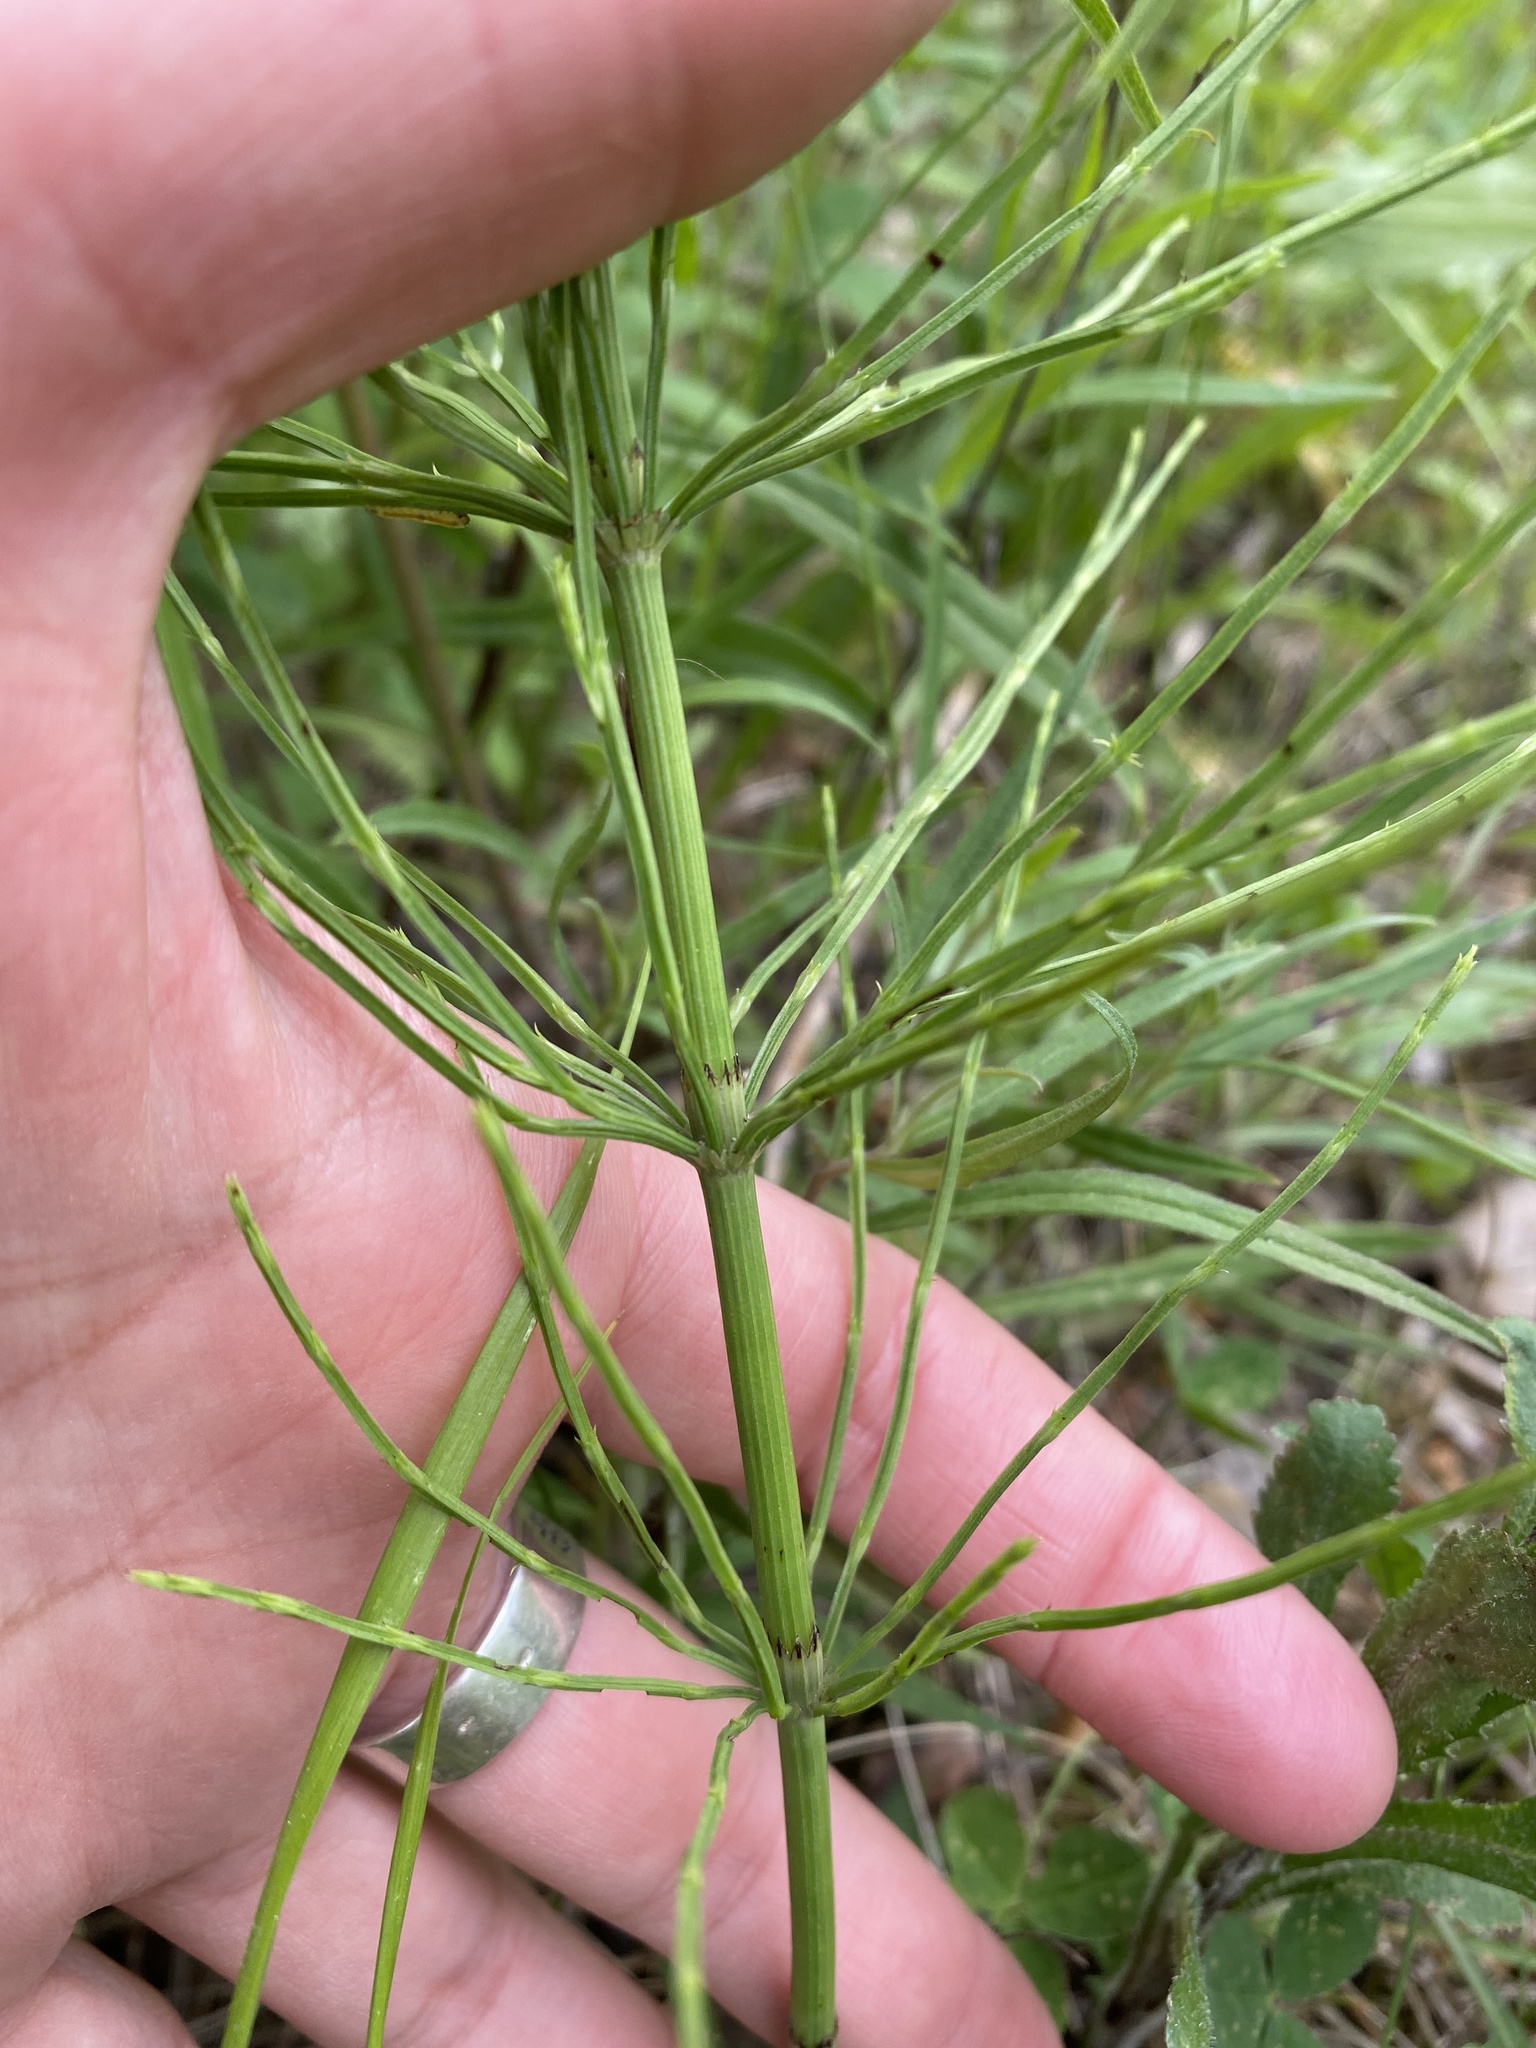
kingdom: Plantae
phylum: Tracheophyta
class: Polypodiopsida
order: Equisetales
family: Equisetaceae
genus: Equisetum
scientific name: Equisetum arvense
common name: Field horsetail
